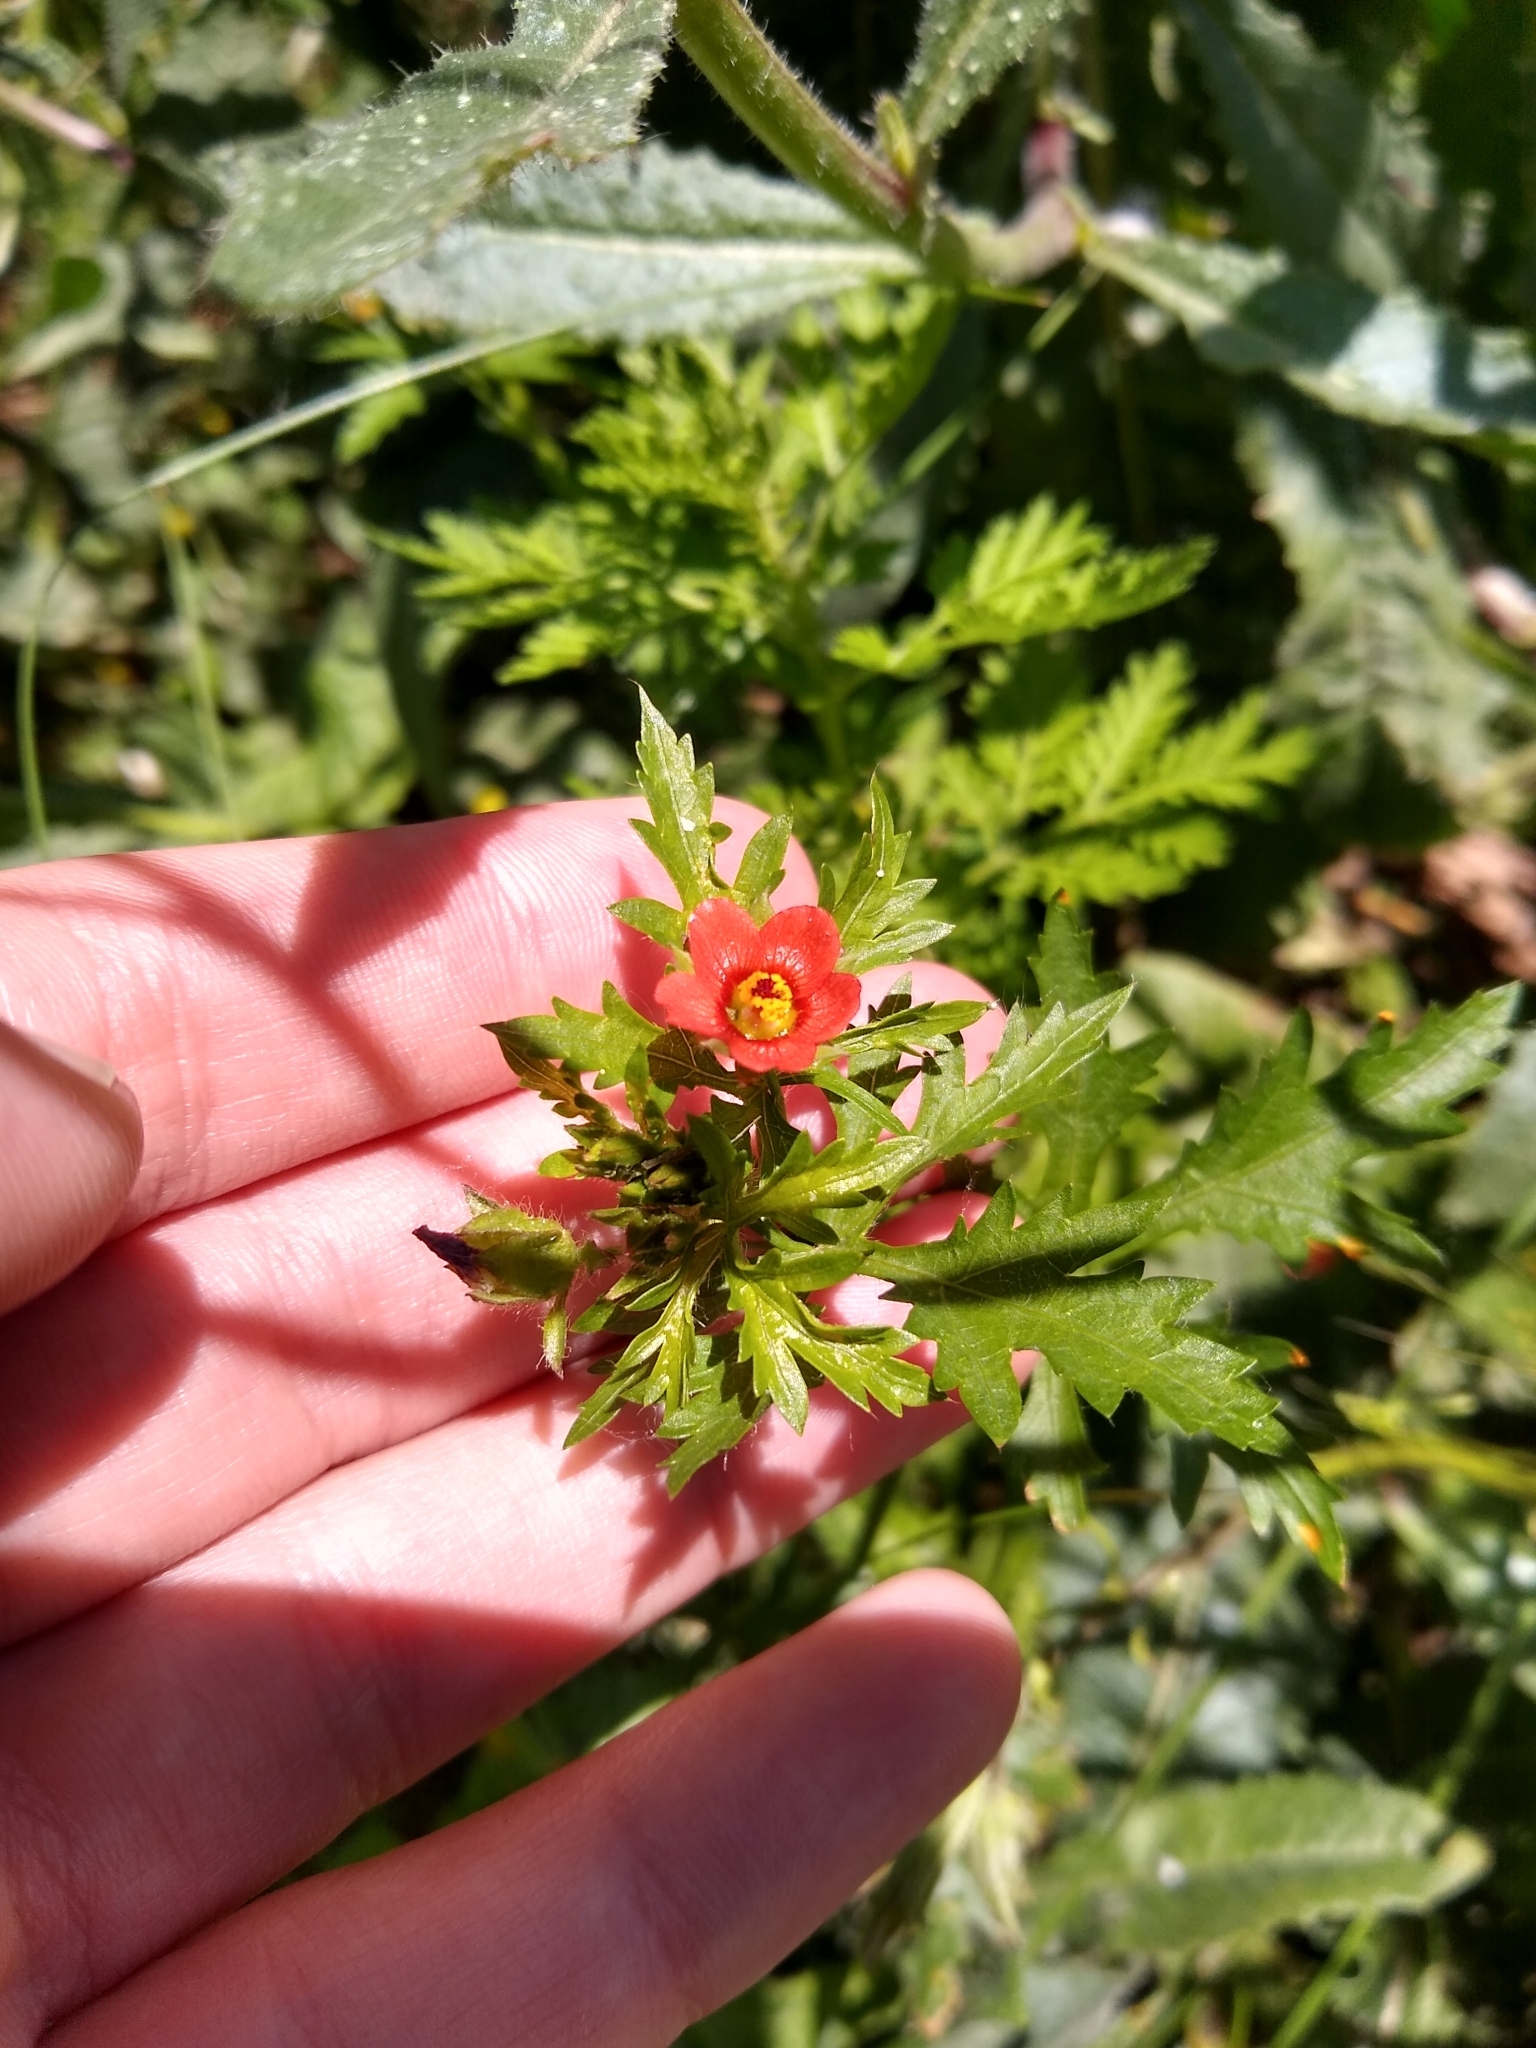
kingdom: Plantae
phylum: Tracheophyta
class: Magnoliopsida
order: Malvales
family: Malvaceae
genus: Modiola
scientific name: Modiola caroliniana
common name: Carolina bristlemallow
